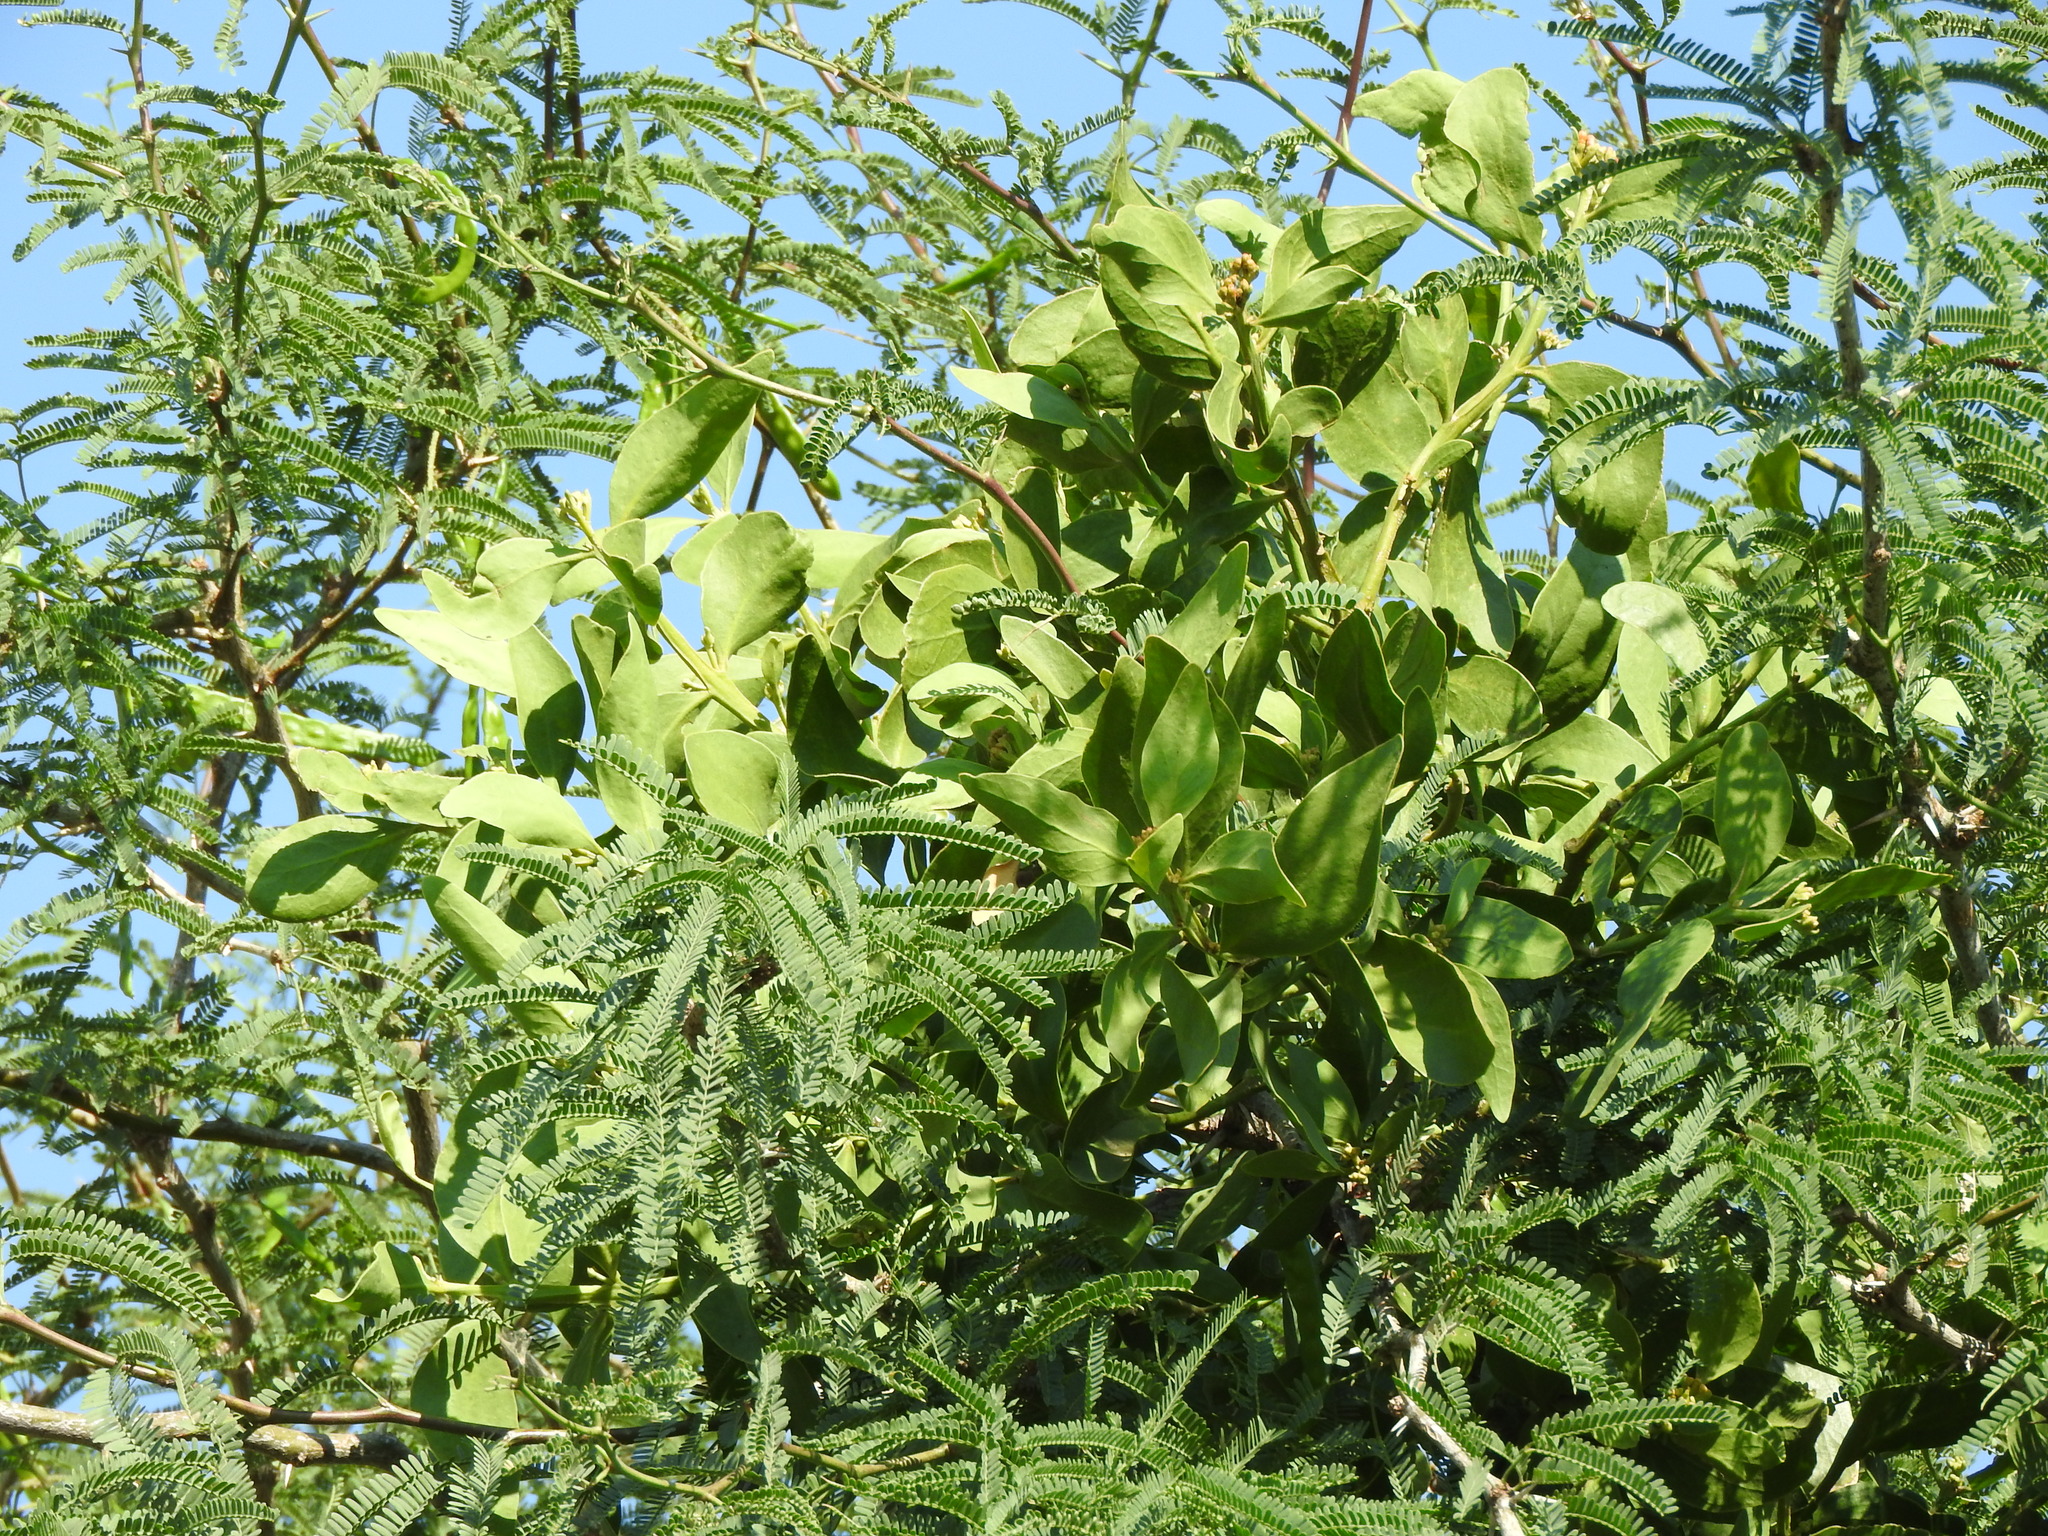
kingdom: Plantae
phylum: Tracheophyta
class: Magnoliopsida
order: Santalales
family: Loranthaceae
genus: Psittacanthus
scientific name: Psittacanthus calyculatus
